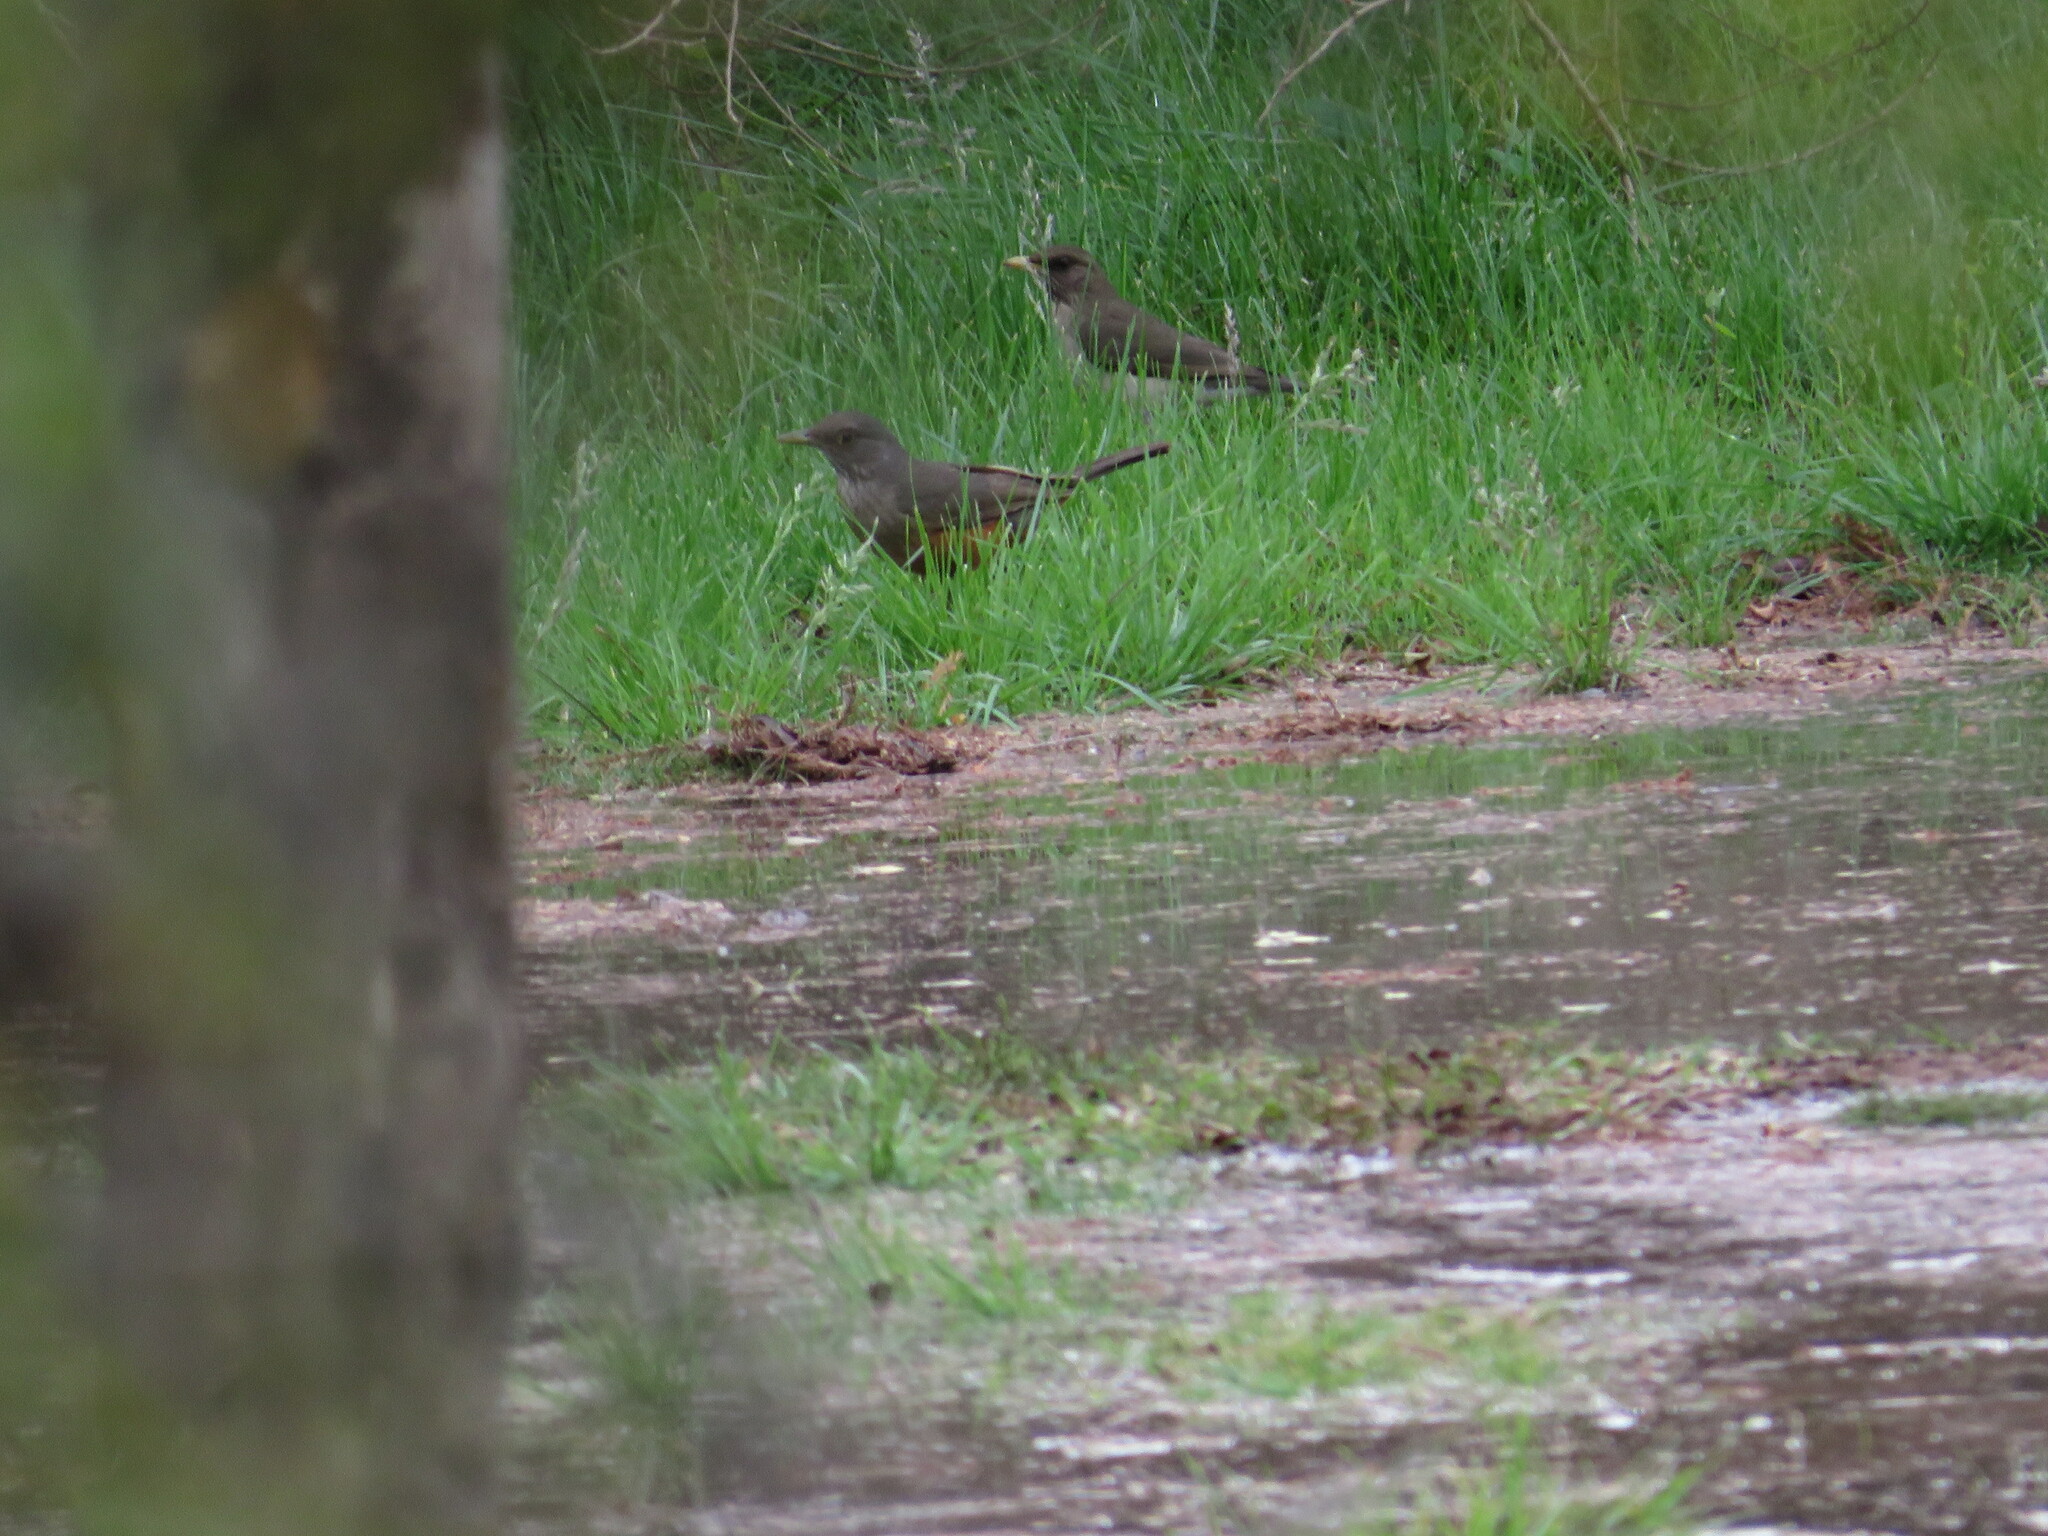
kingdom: Animalia
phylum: Chordata
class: Aves
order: Passeriformes
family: Turdidae
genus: Turdus
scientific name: Turdus amaurochalinus
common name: Creamy-bellied thrush
